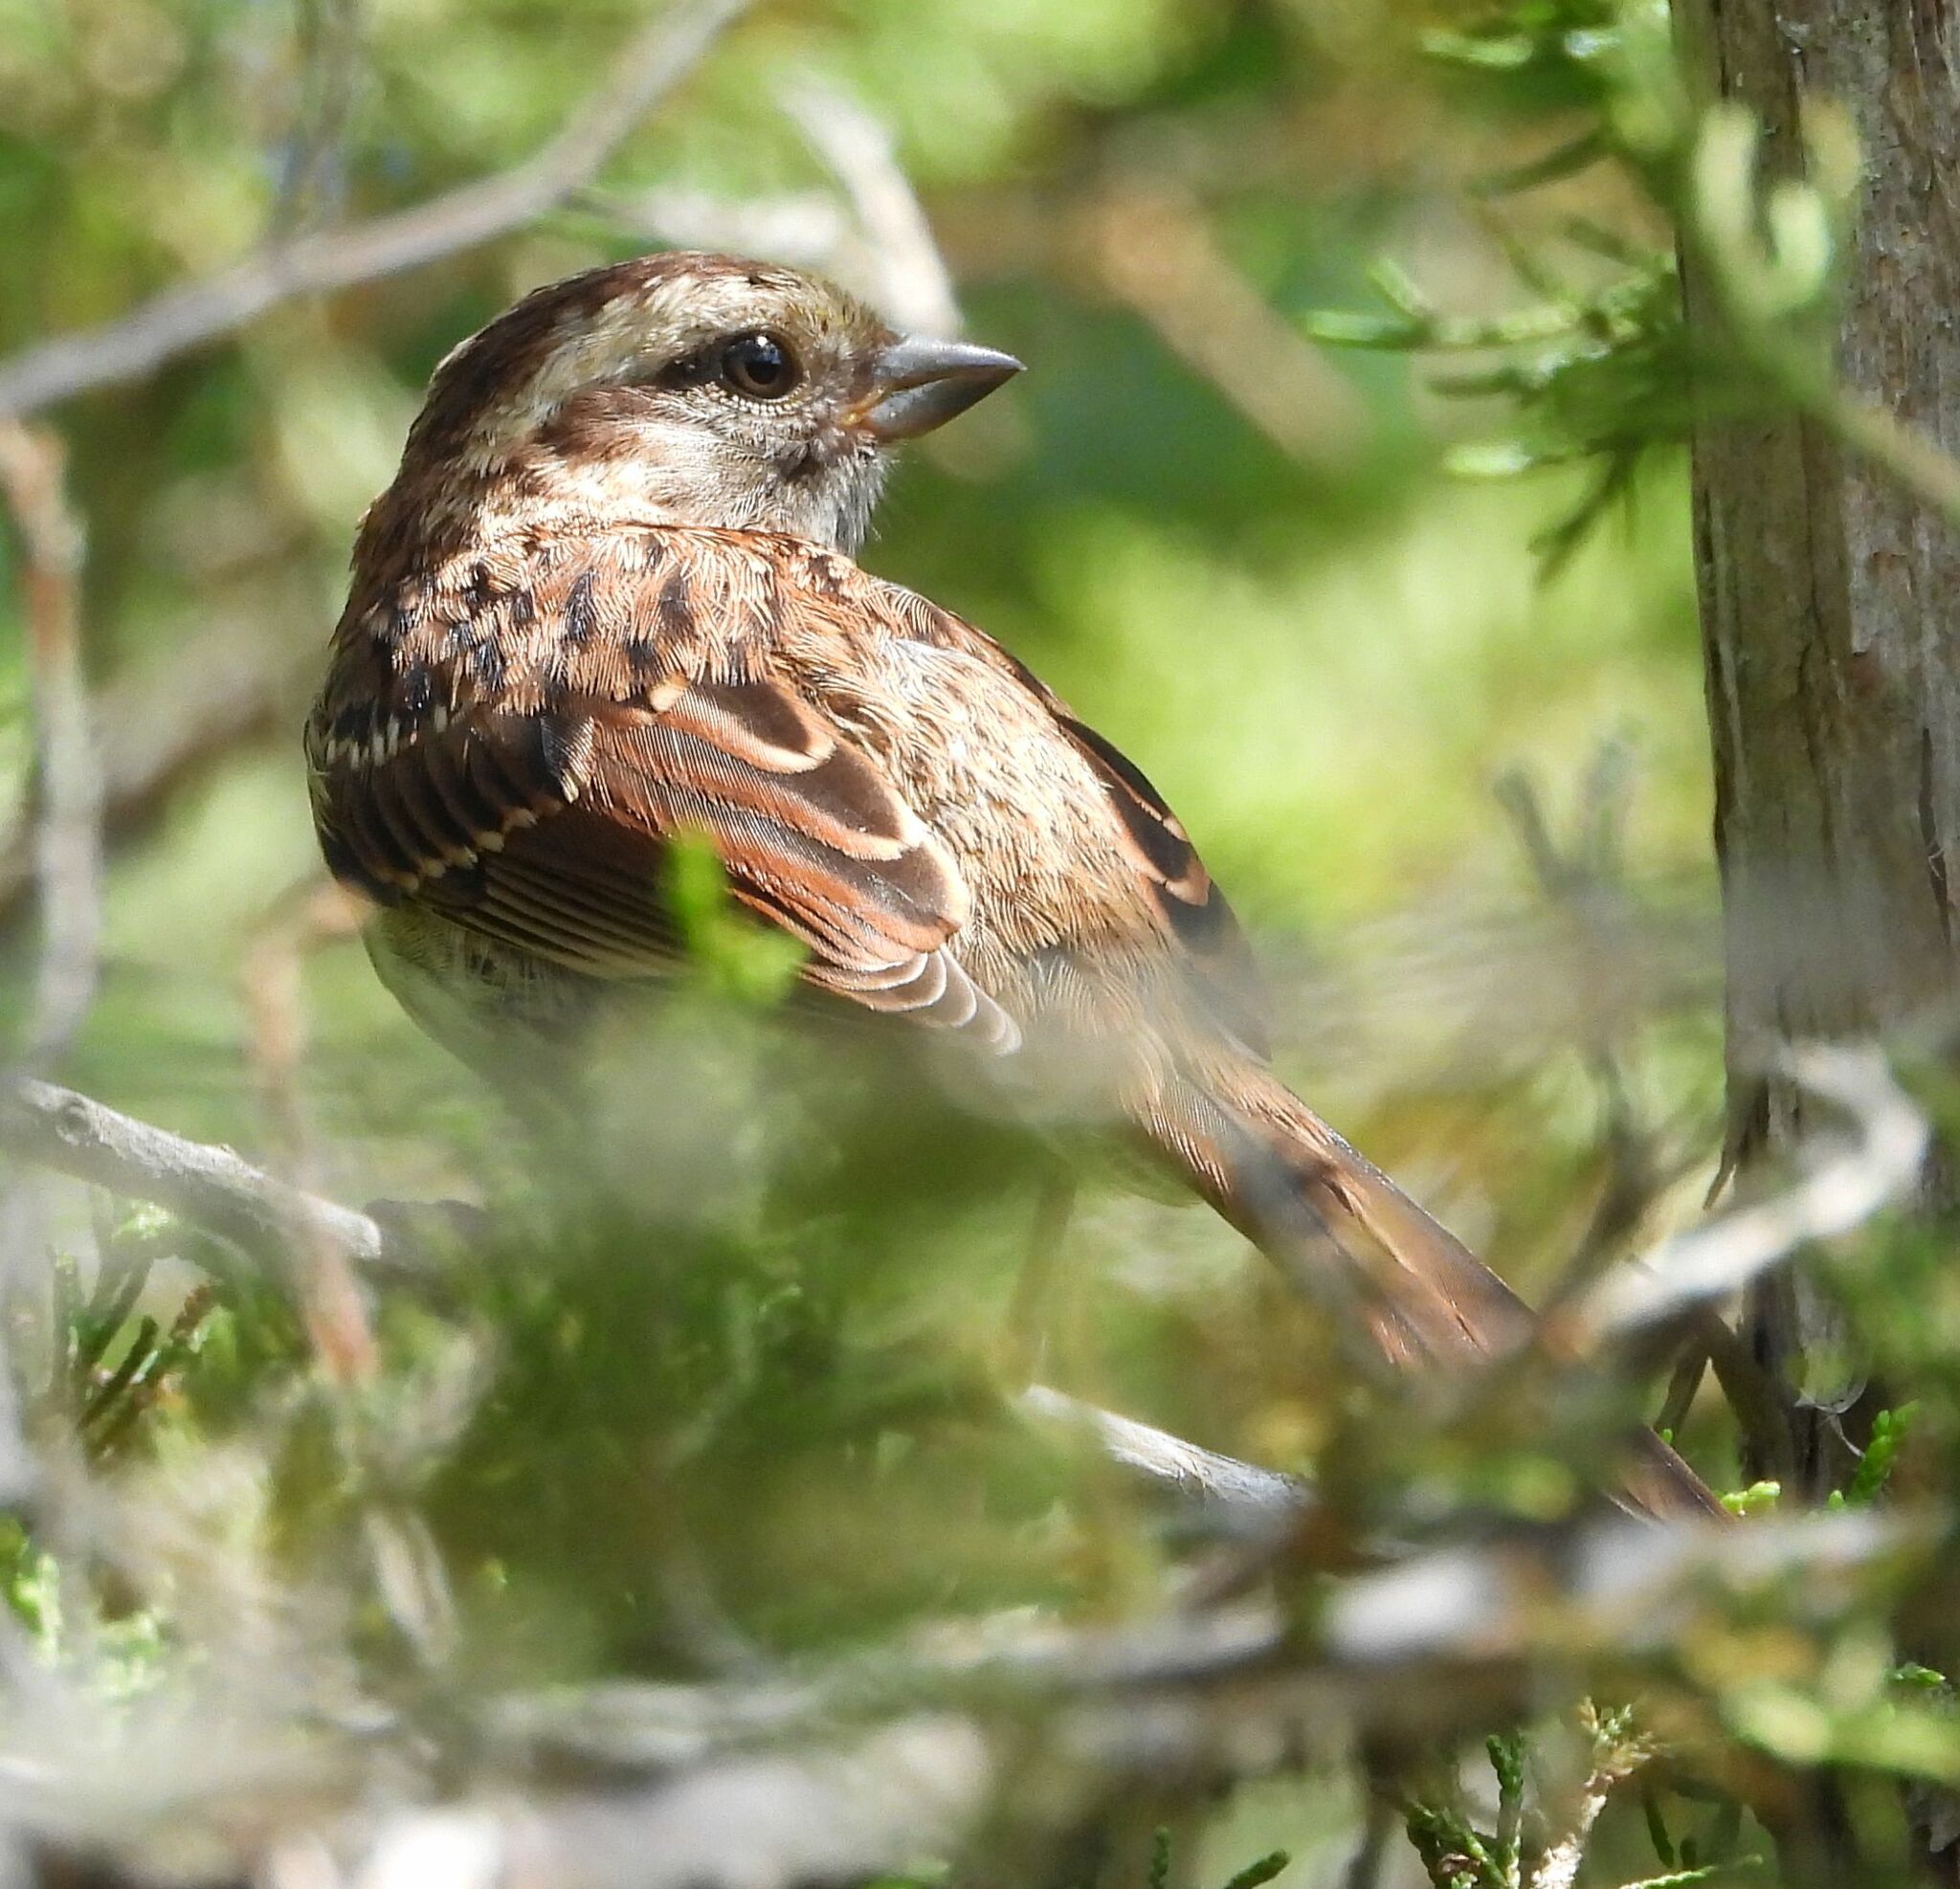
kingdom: Animalia
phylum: Chordata
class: Aves
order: Passeriformes
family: Passerellidae
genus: Zonotrichia
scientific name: Zonotrichia albicollis
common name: White-throated sparrow
